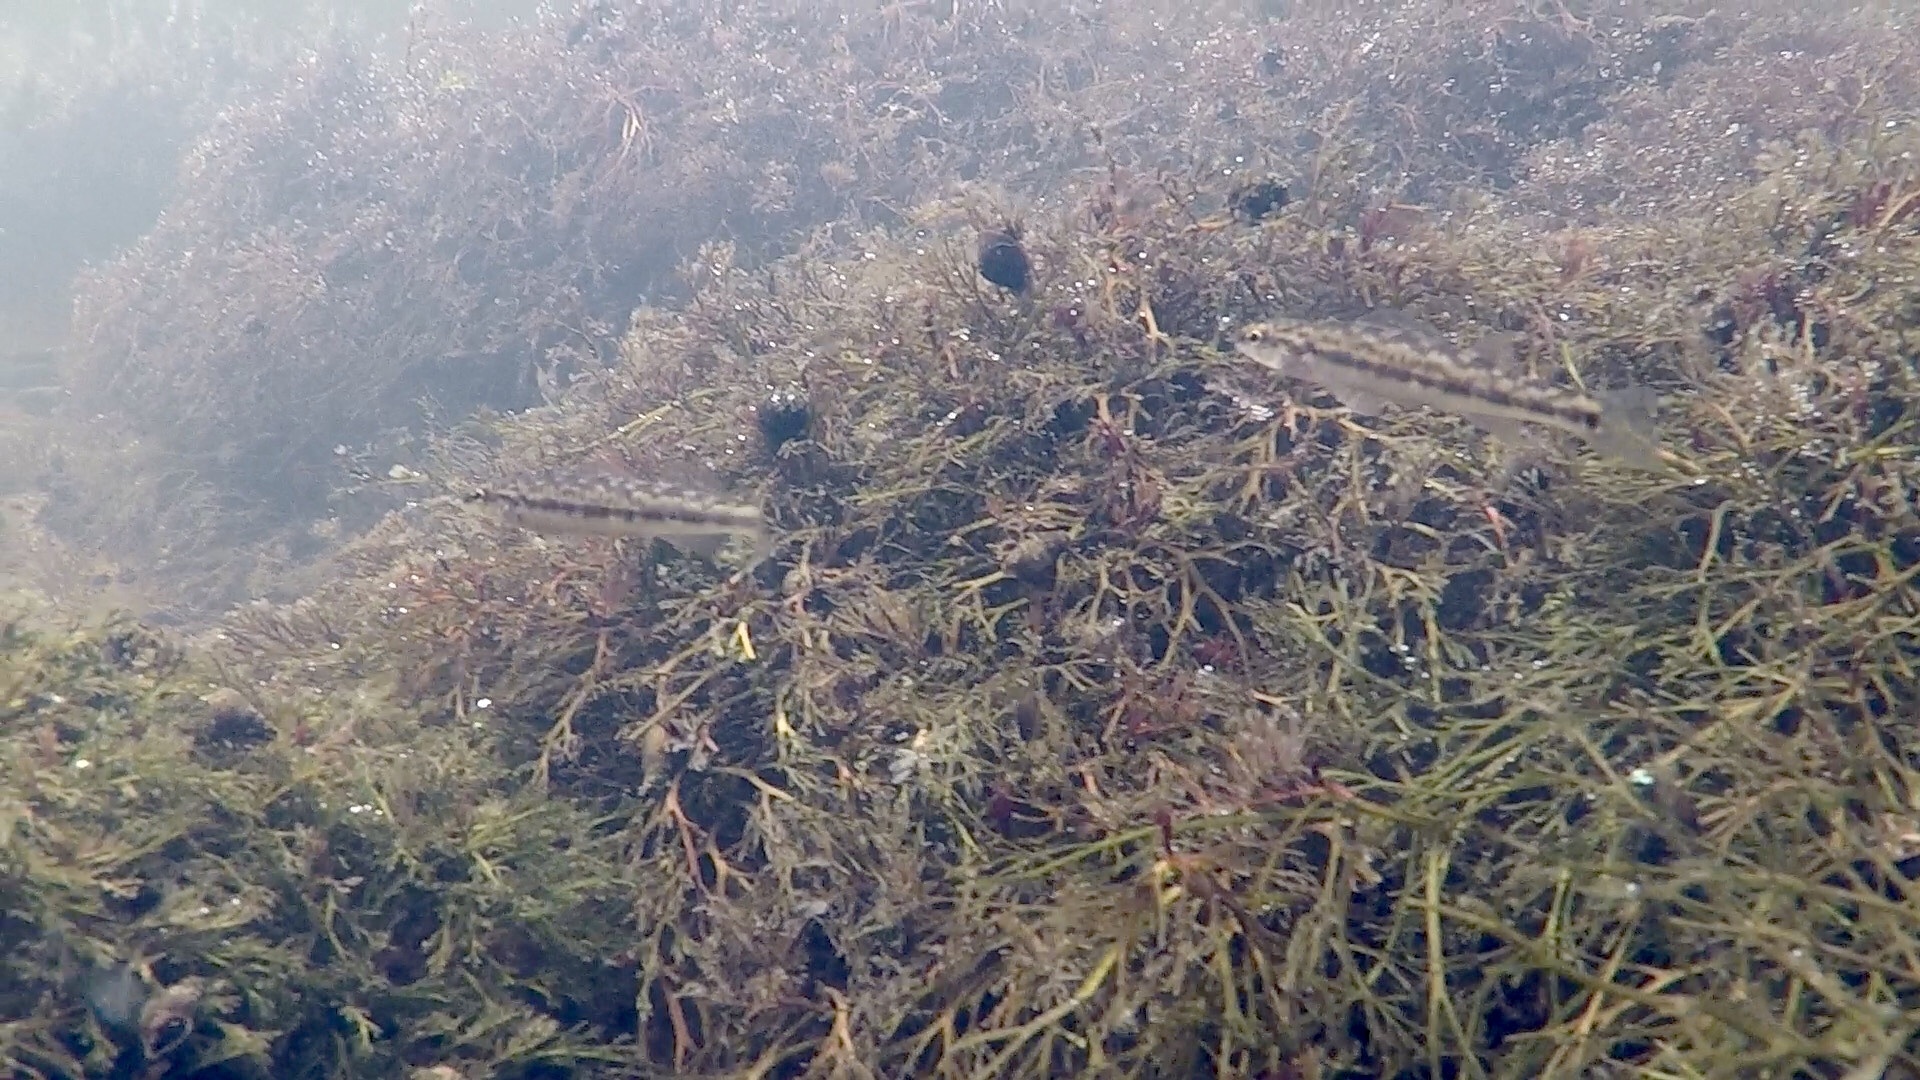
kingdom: Animalia
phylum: Chordata
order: Perciformes
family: Percidae
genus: Percina
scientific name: Percina nevisense
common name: Chainback darter
